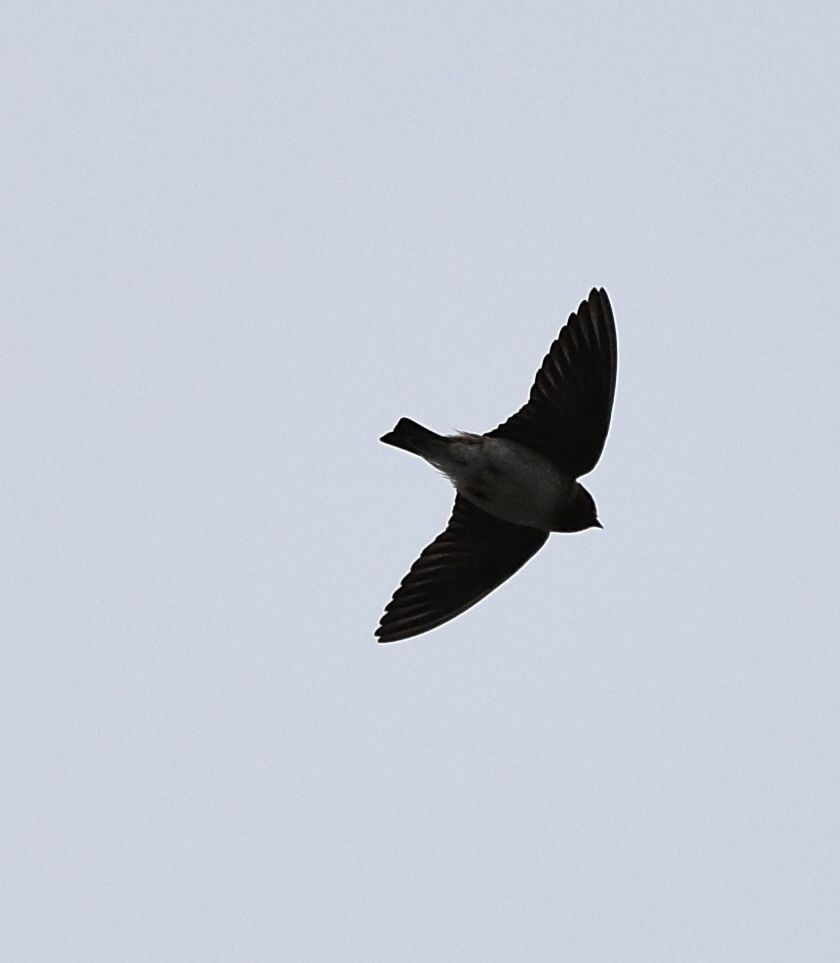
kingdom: Animalia
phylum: Chordata
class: Aves
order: Passeriformes
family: Hirundinidae
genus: Petrochelidon
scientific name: Petrochelidon pyrrhonota
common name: American cliff swallow
